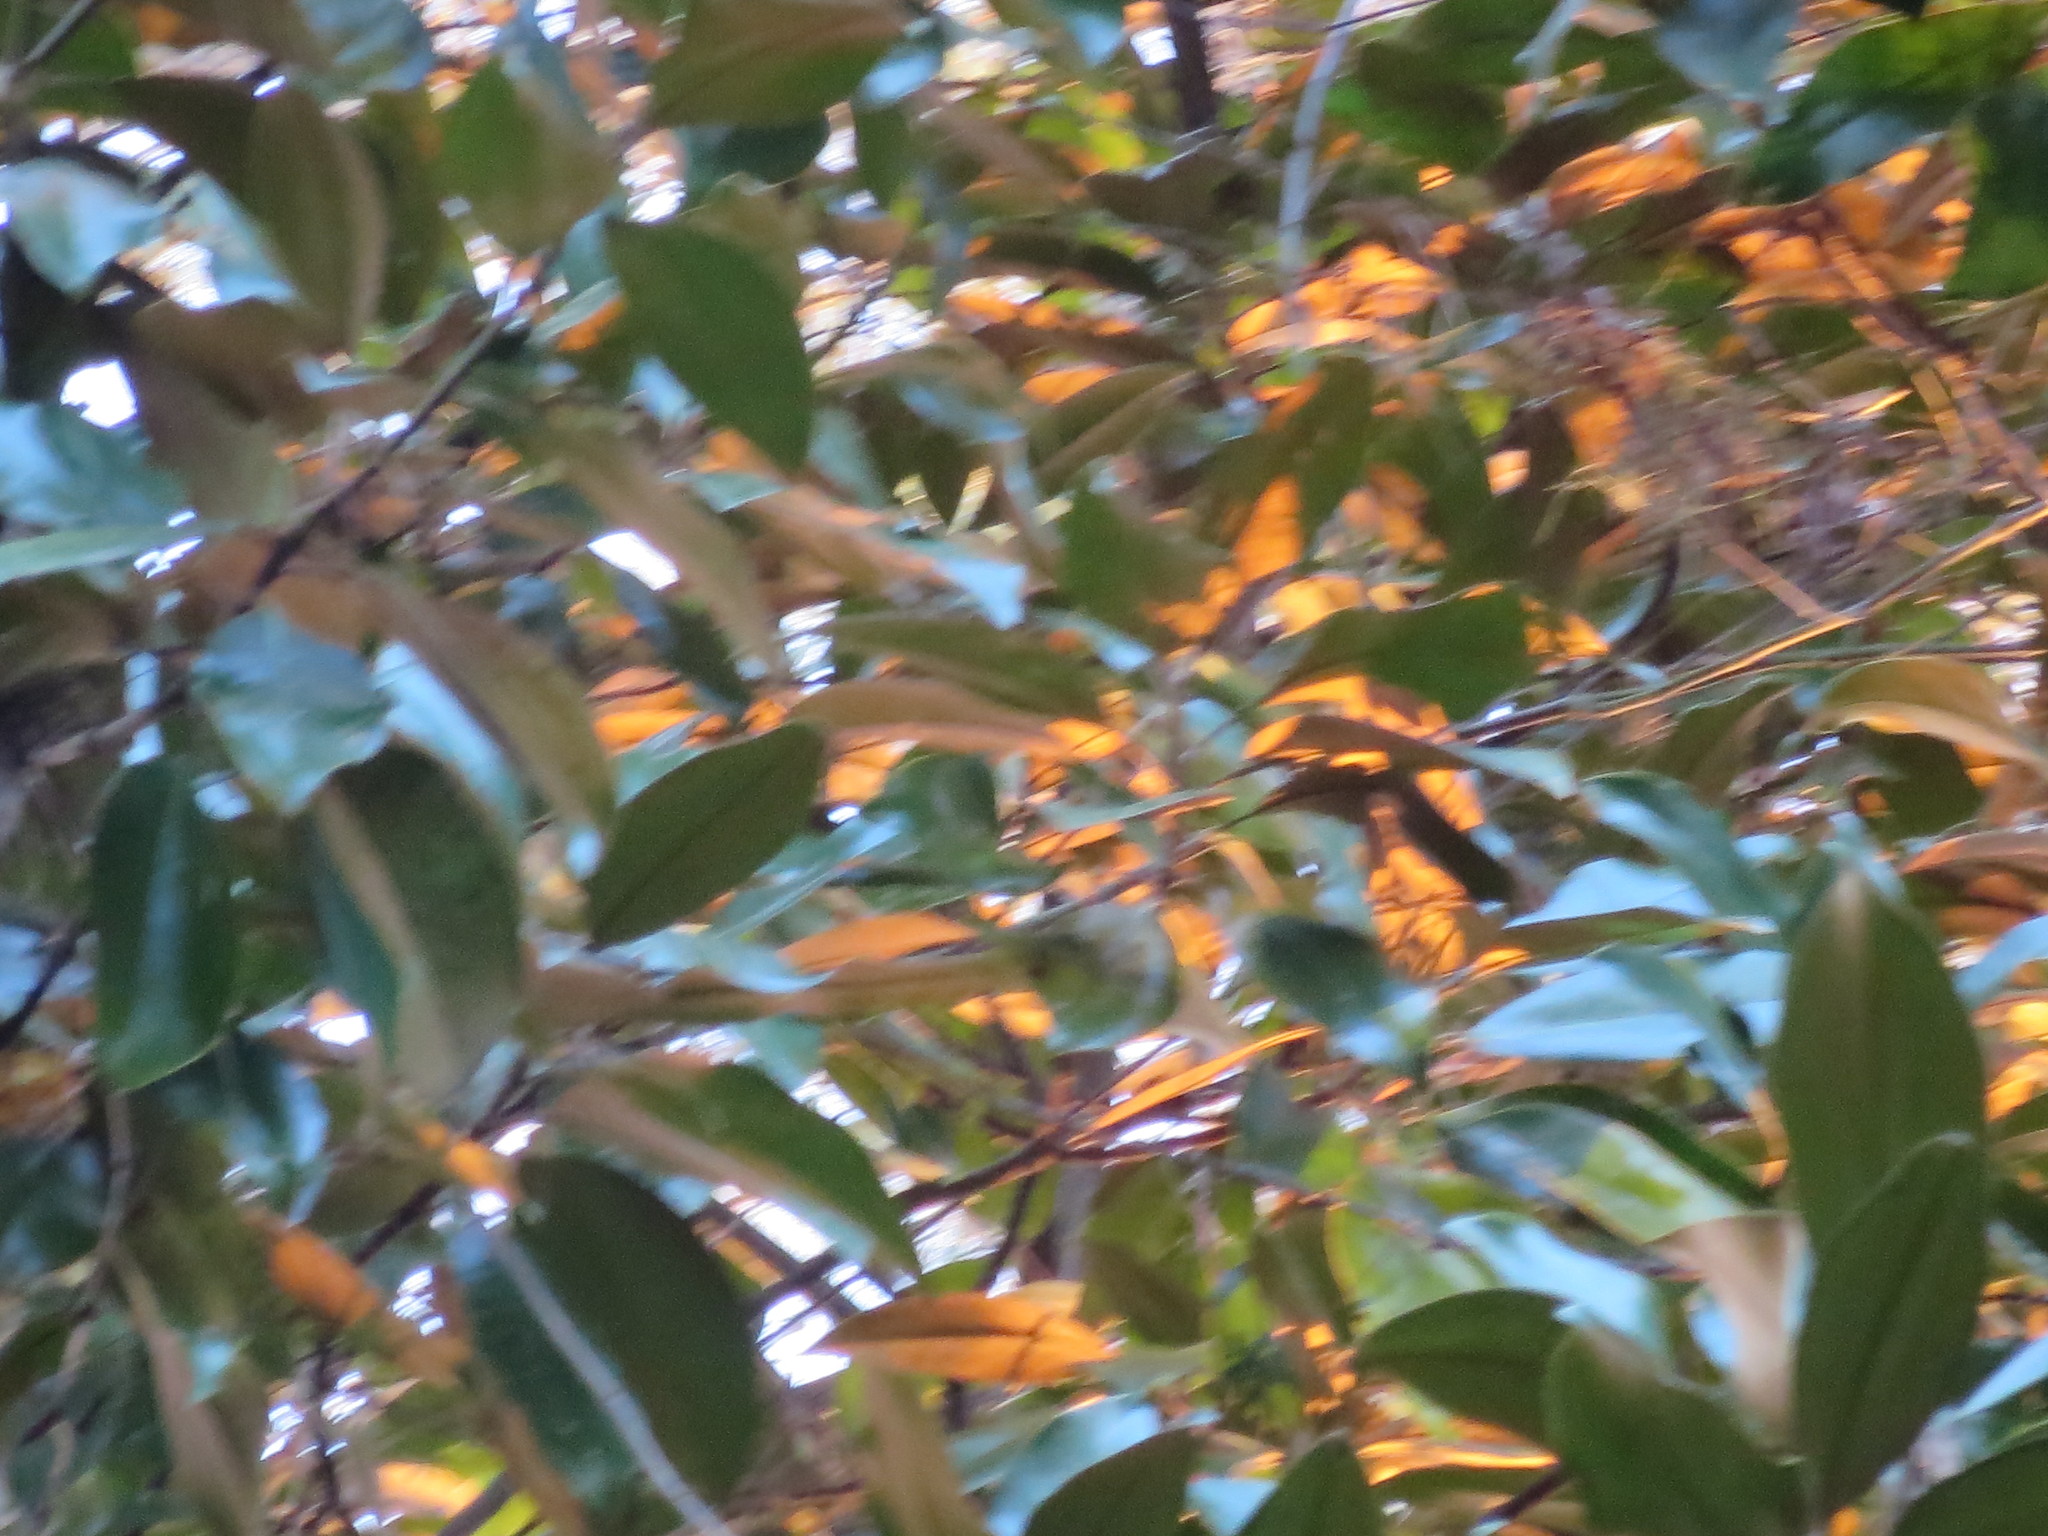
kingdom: Plantae
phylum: Tracheophyta
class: Magnoliopsida
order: Magnoliales
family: Magnoliaceae
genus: Magnolia
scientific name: Magnolia grandiflora
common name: Southern magnolia
